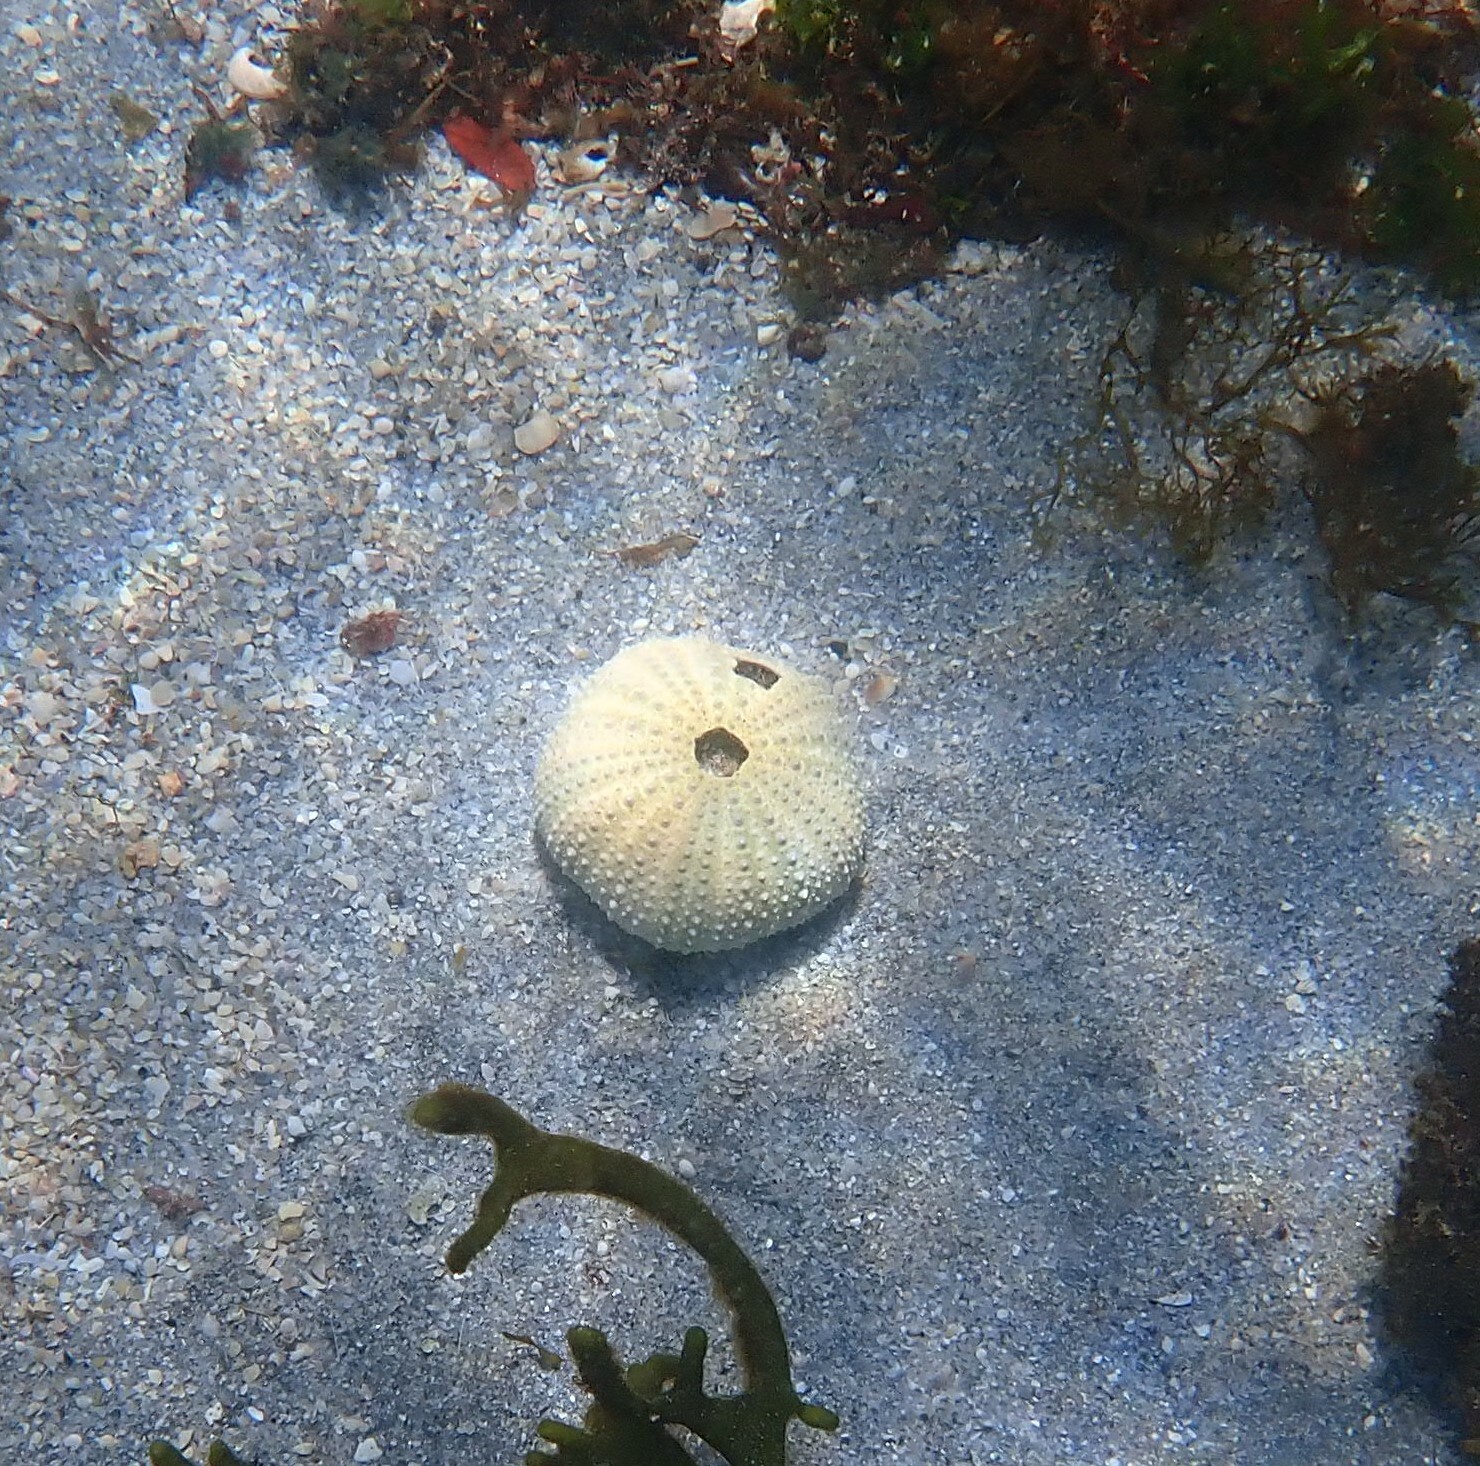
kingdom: Animalia
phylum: Echinodermata
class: Echinoidea
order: Camarodonta
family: Parechinidae
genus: Paracentrotus
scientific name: Paracentrotus lividus
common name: Purple sea urchin
